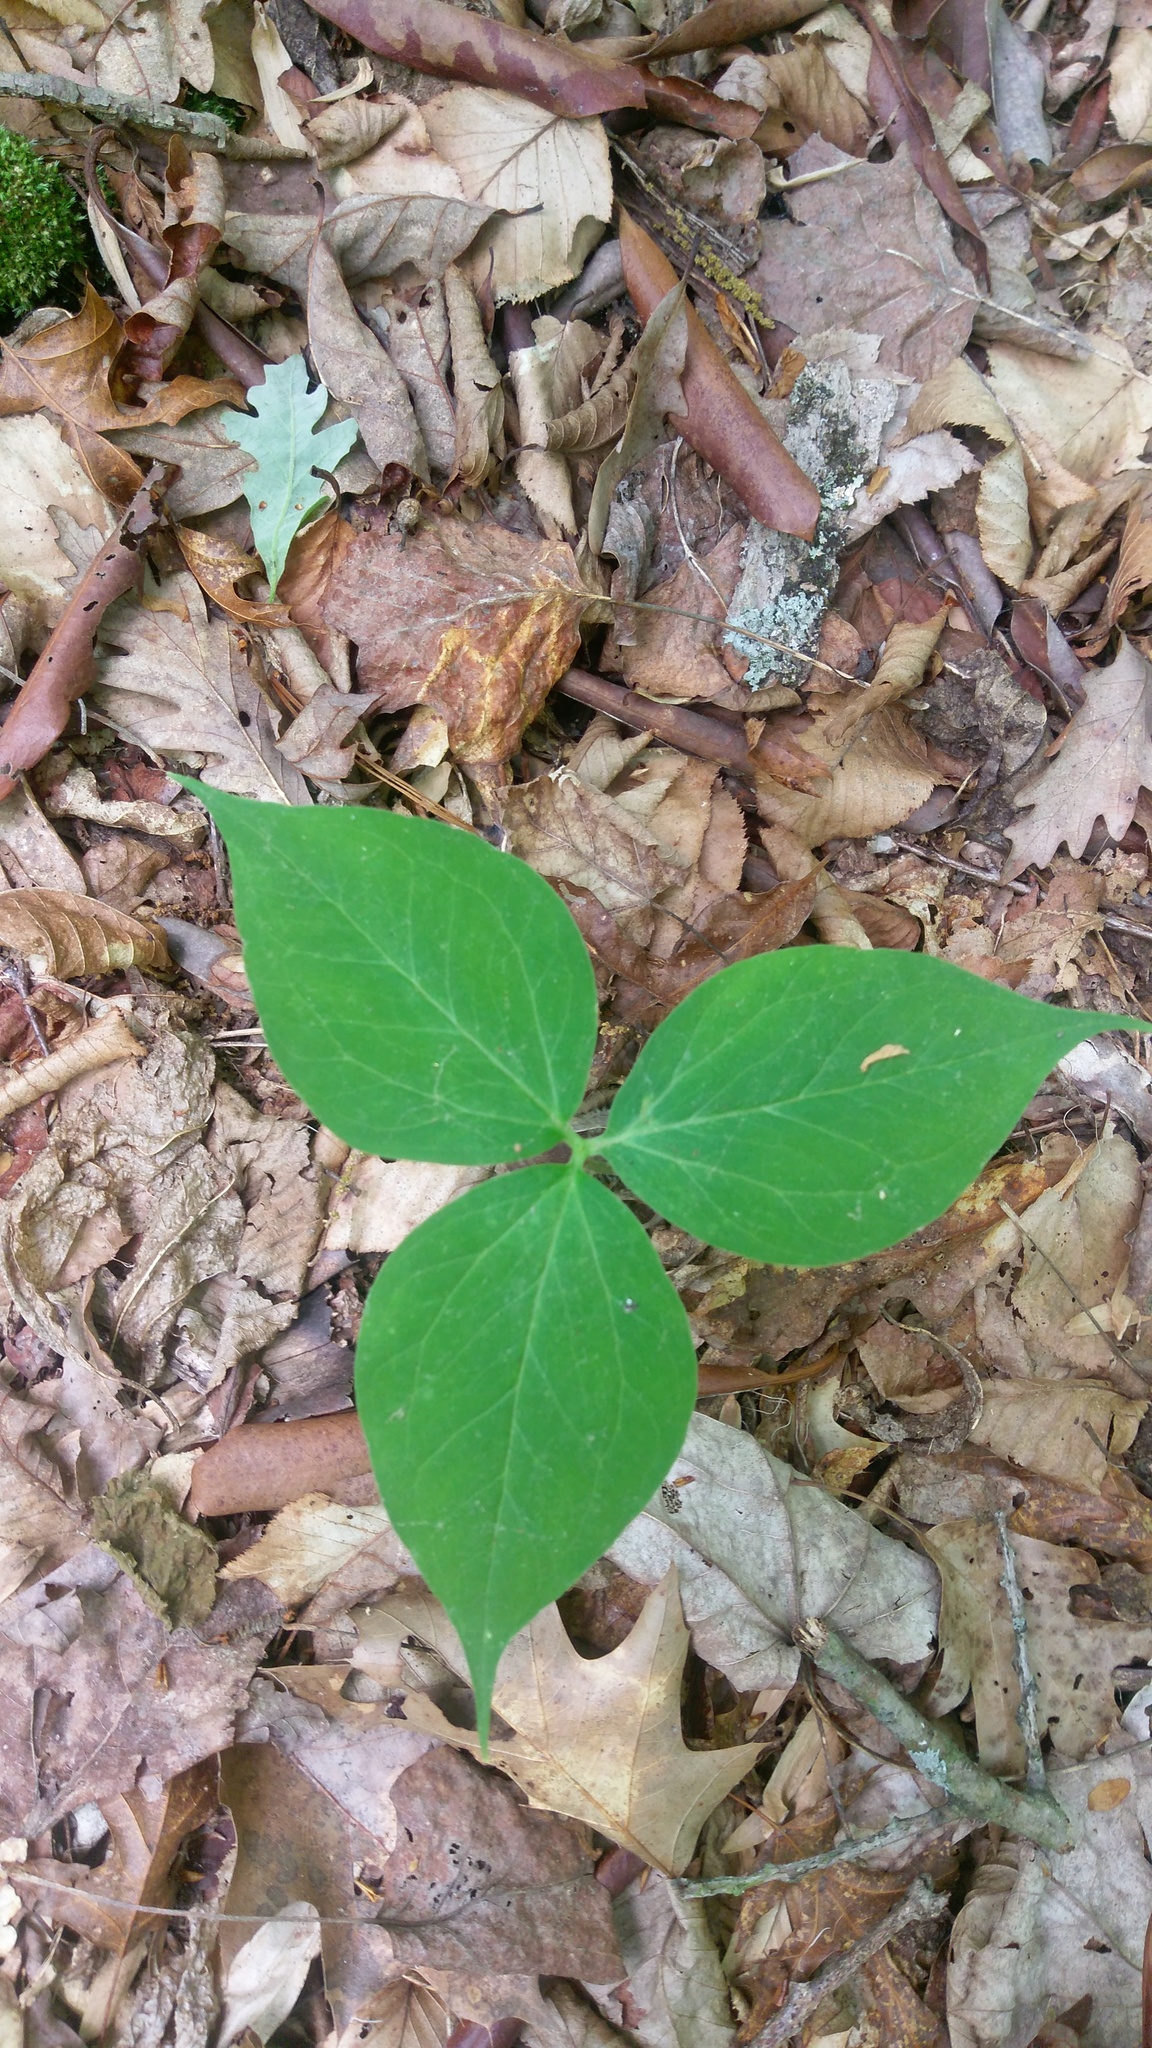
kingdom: Plantae
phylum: Tracheophyta
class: Liliopsida
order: Liliales
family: Melanthiaceae
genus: Trillium
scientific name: Trillium undulatum
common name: Paint trillium
